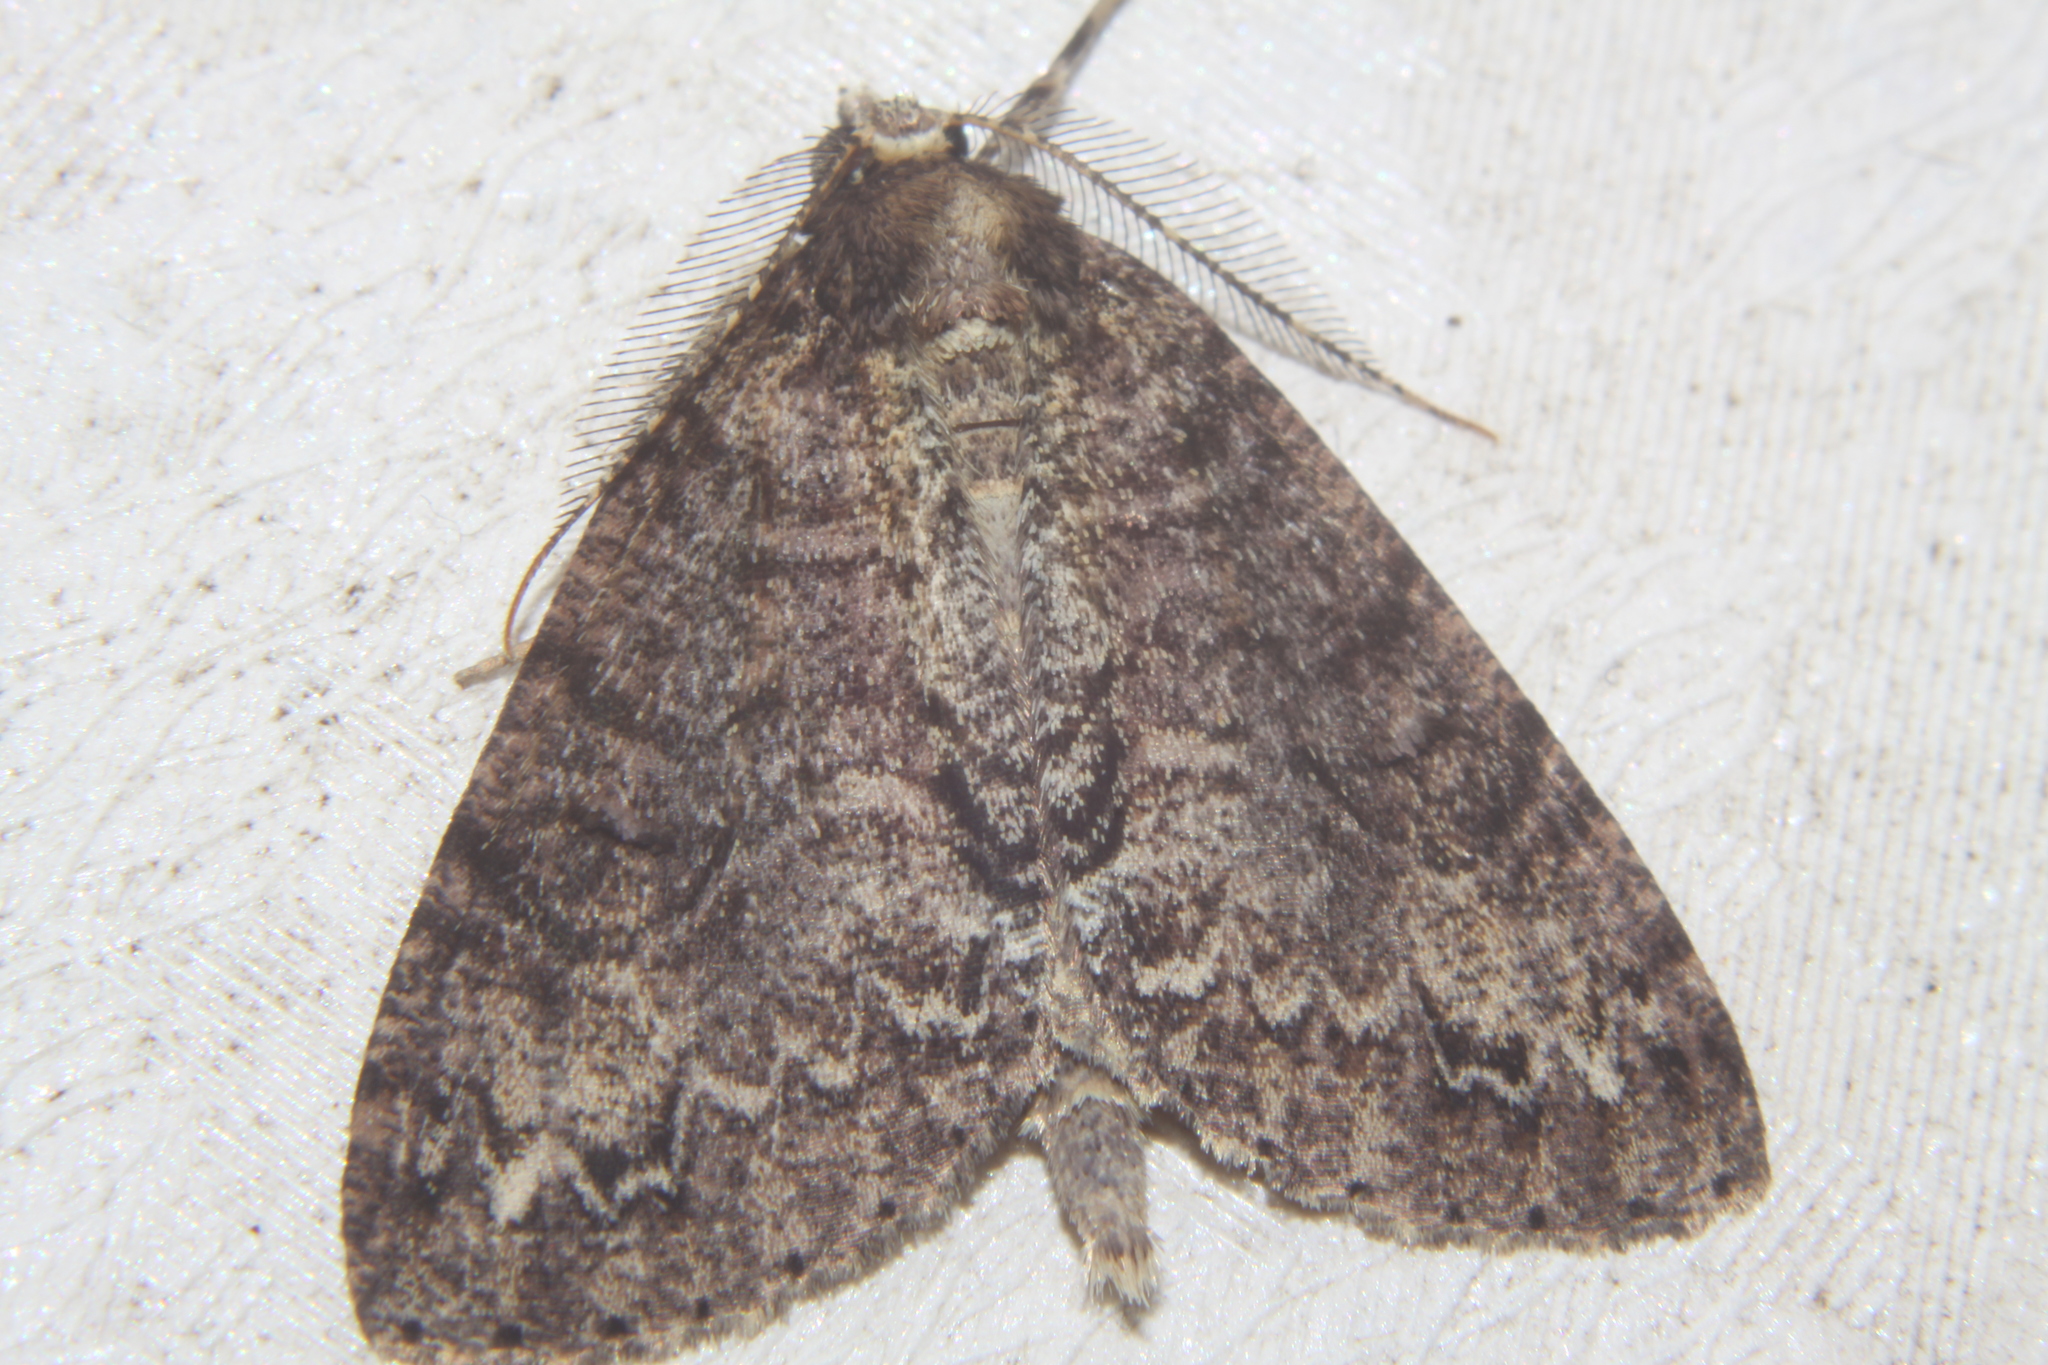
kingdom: Animalia
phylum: Arthropoda
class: Insecta
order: Lepidoptera
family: Geometridae
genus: Pseudocoremia
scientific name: Pseudocoremia suavis
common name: Common forest looper
